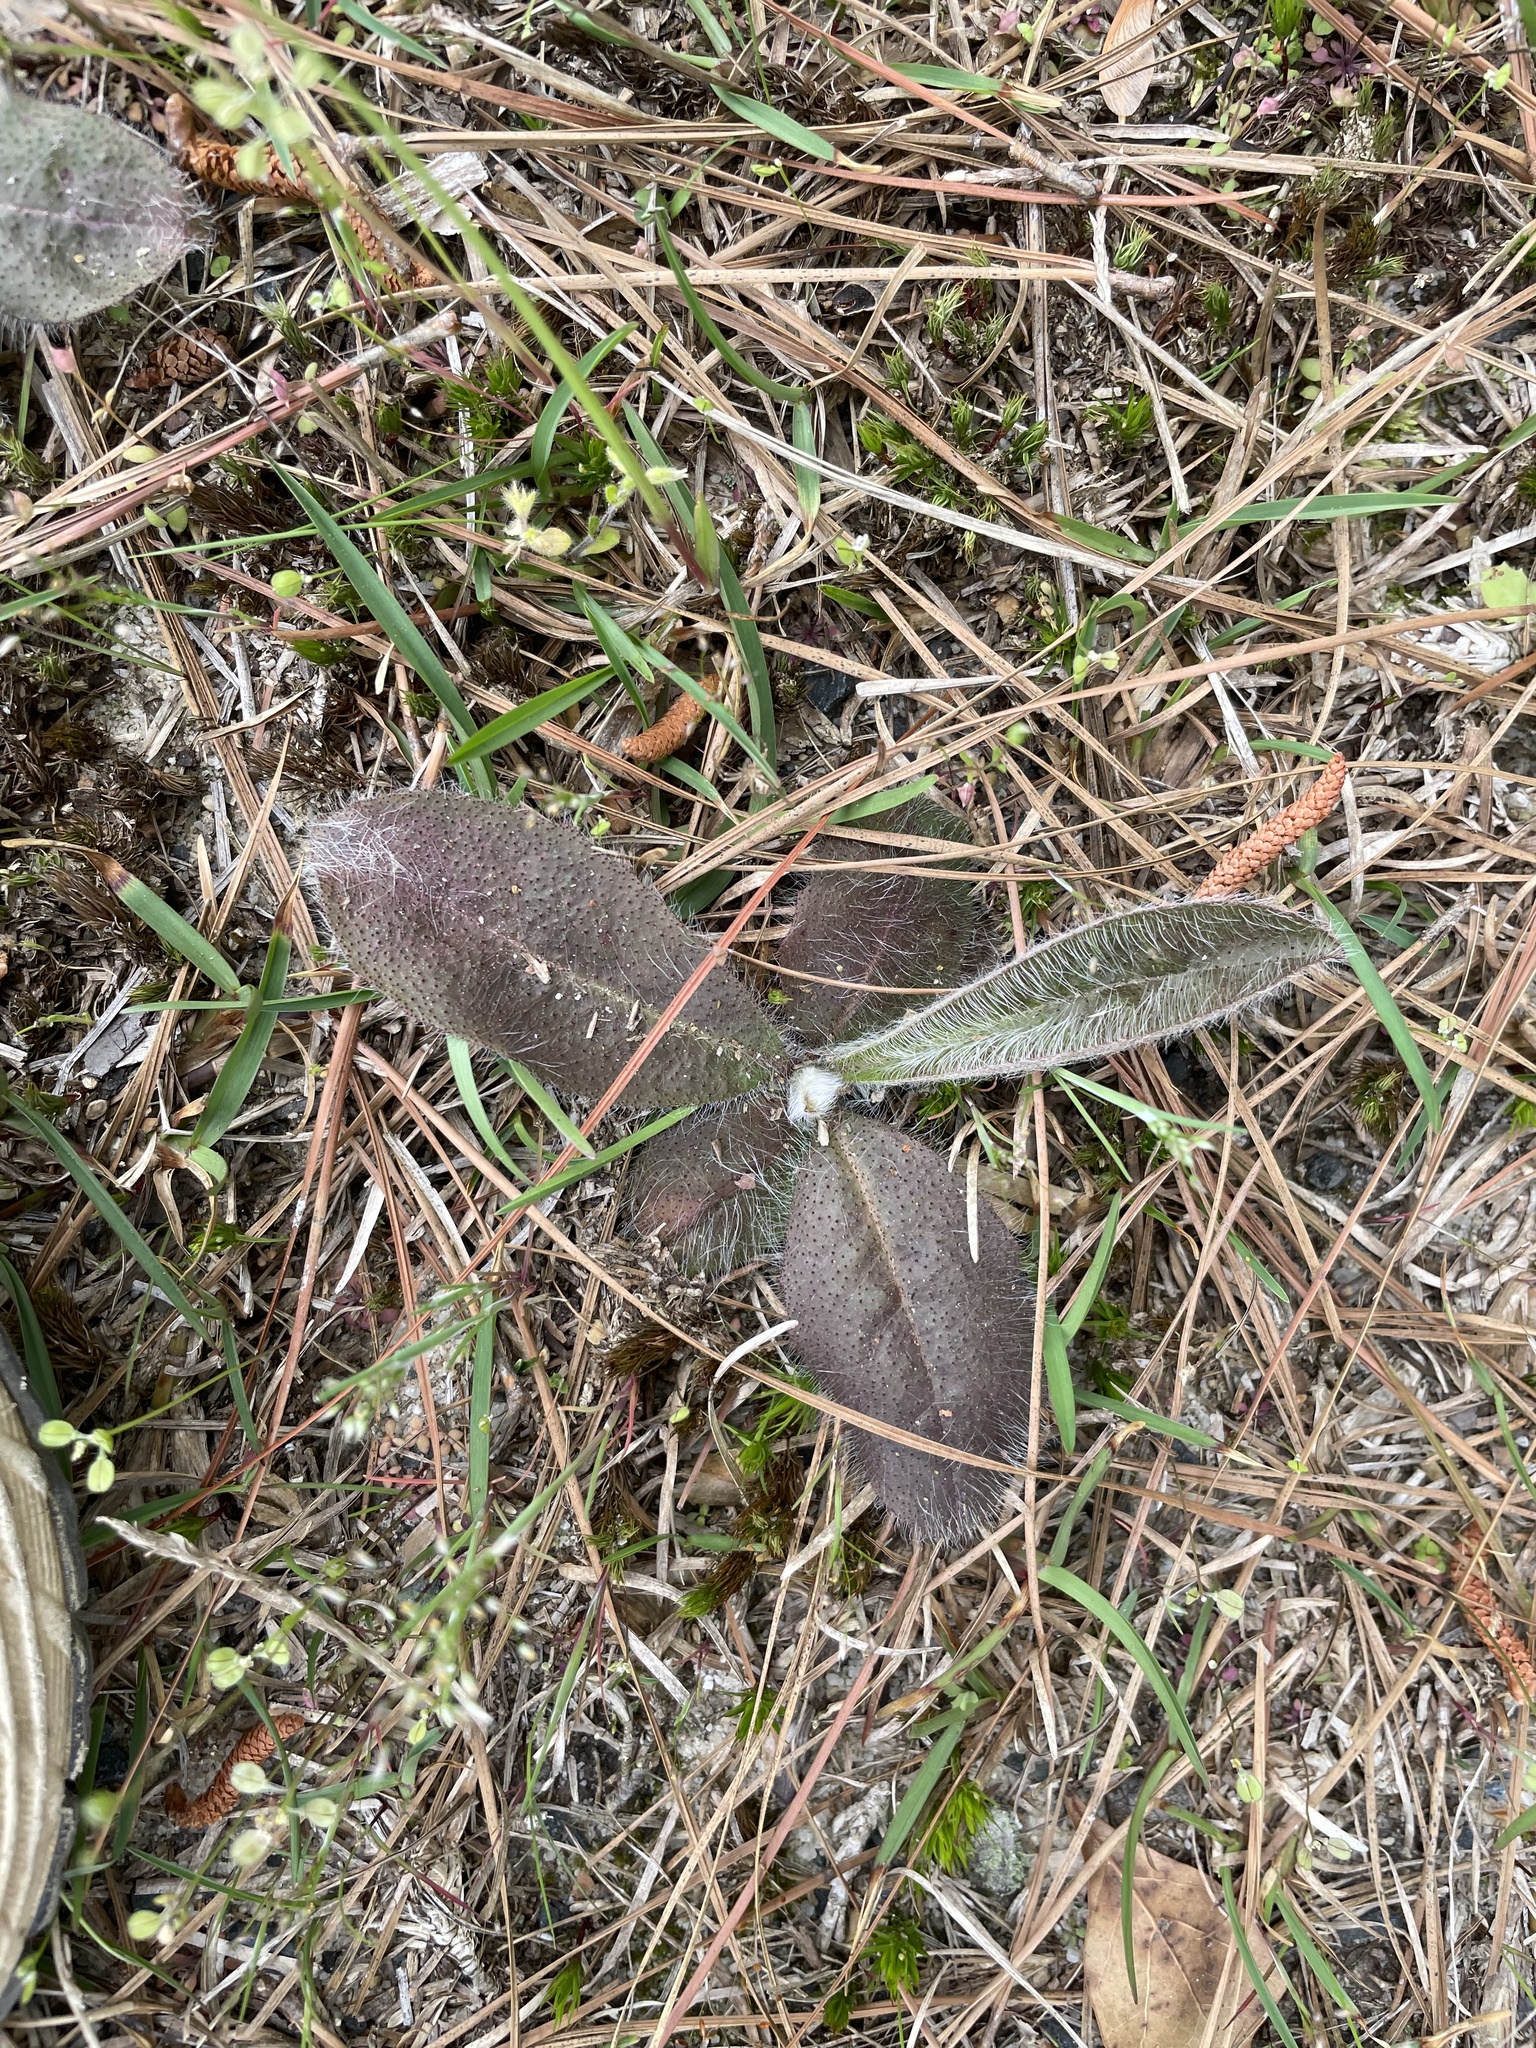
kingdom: Plantae
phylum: Tracheophyta
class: Magnoliopsida
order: Asterales
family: Asteraceae
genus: Hieracium
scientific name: Hieracium gronovii
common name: Beaked hawkweed
